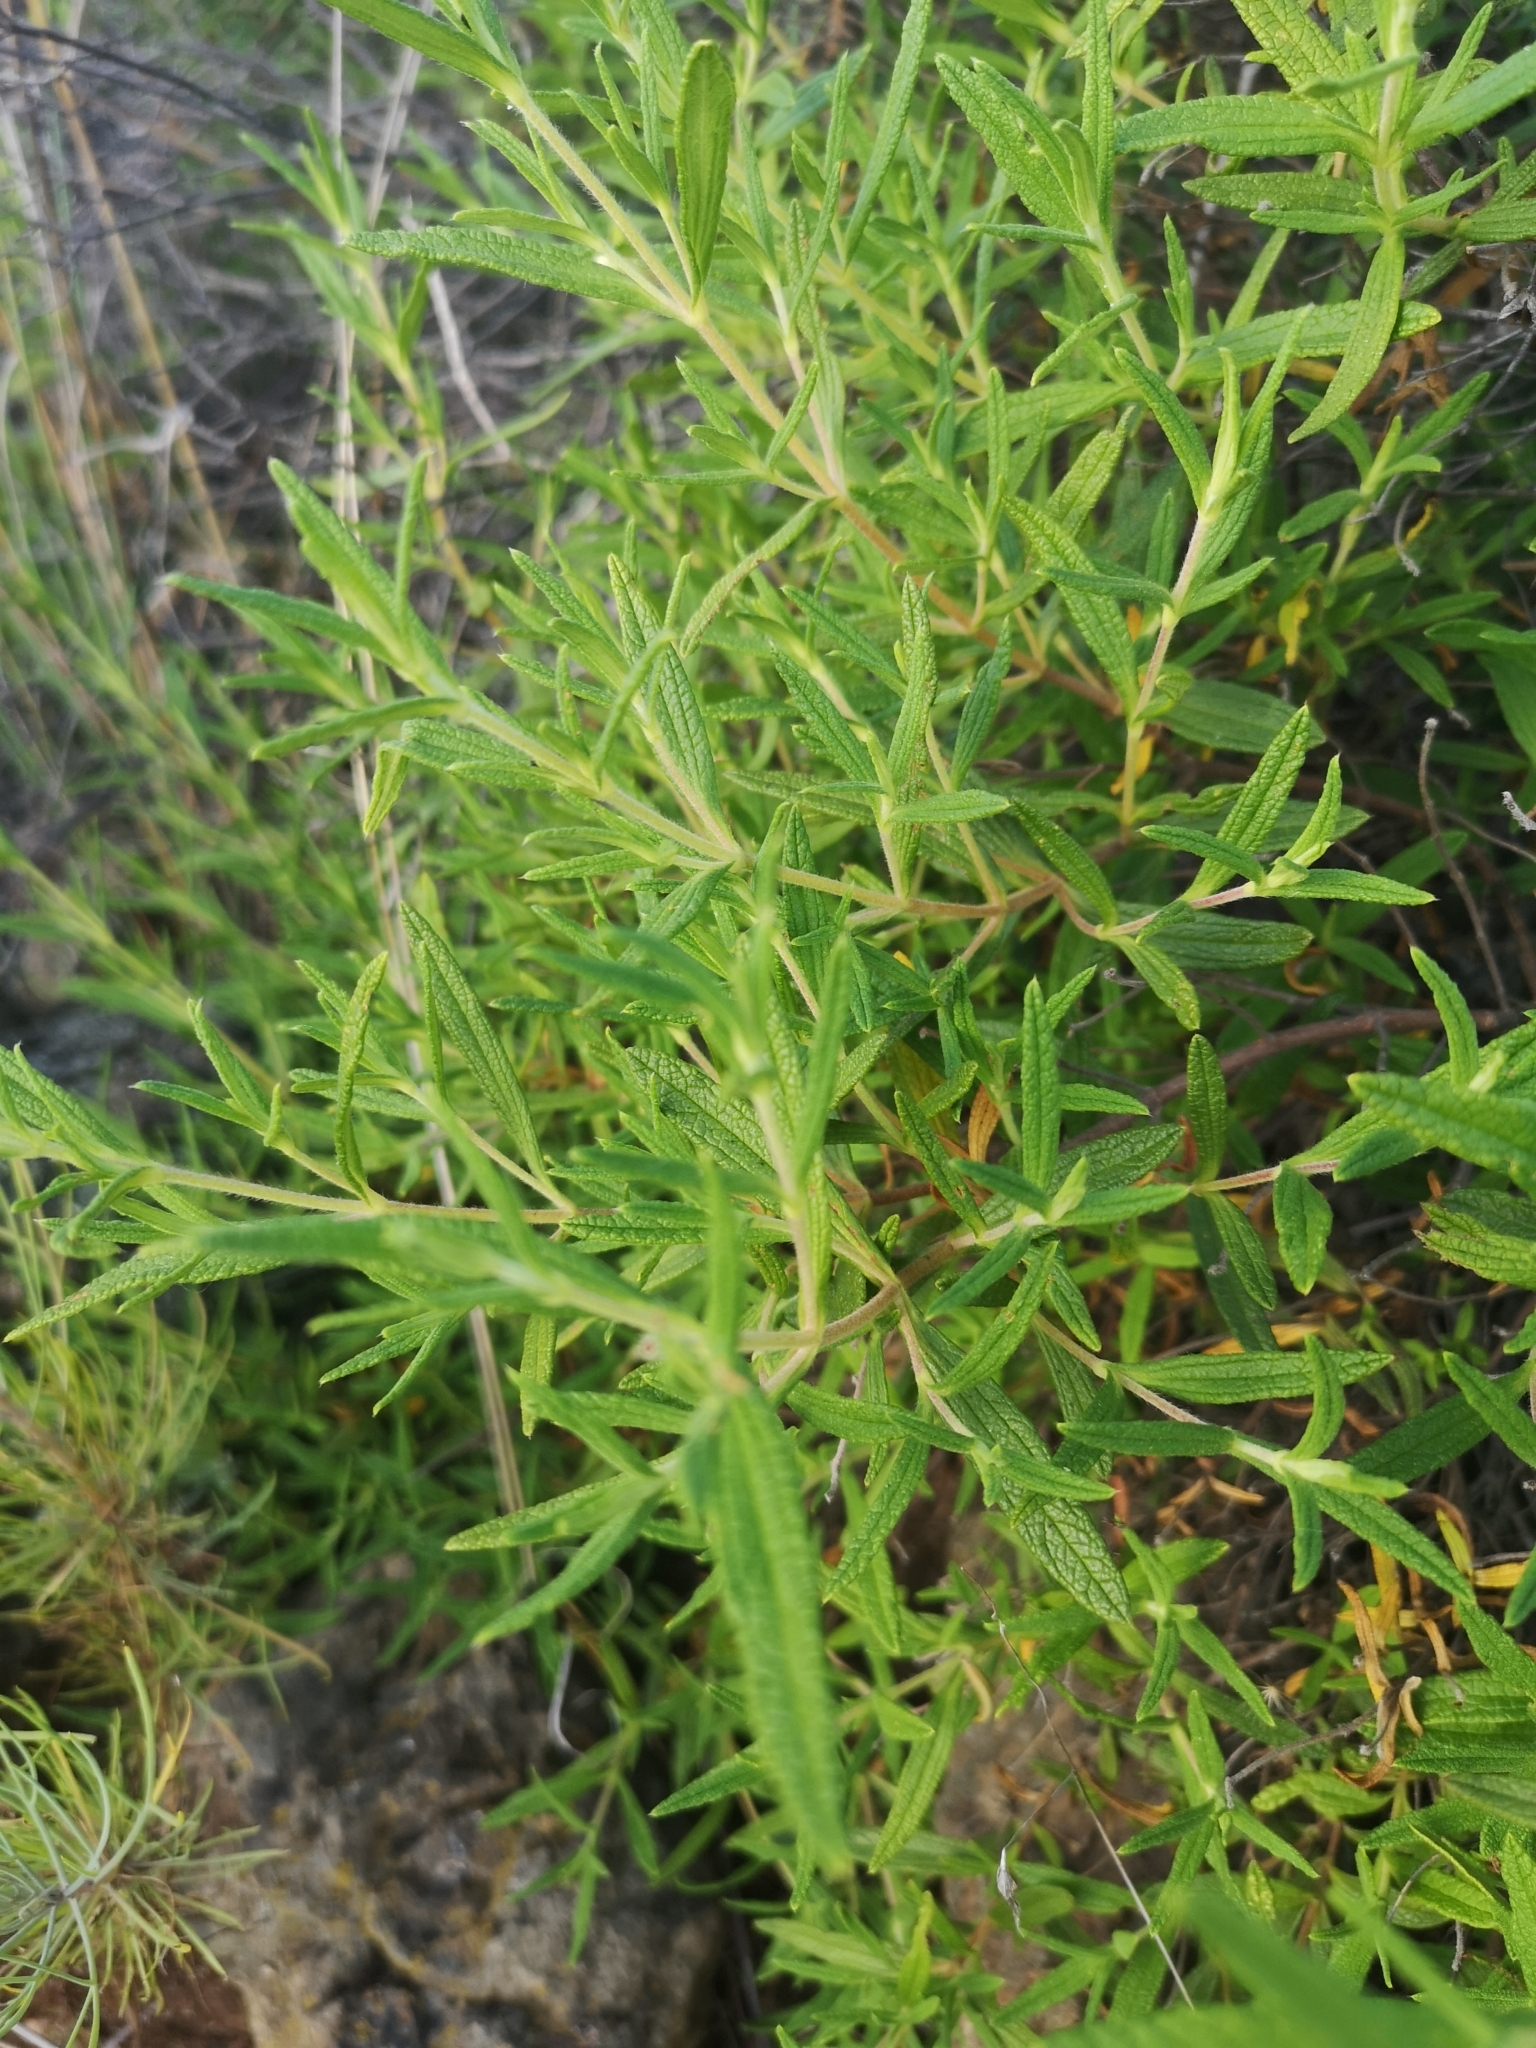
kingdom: Plantae
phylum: Tracheophyta
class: Magnoliopsida
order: Malvales
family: Cistaceae
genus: Cistus
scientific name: Cistus monspeliensis
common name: Montpelier cistus
